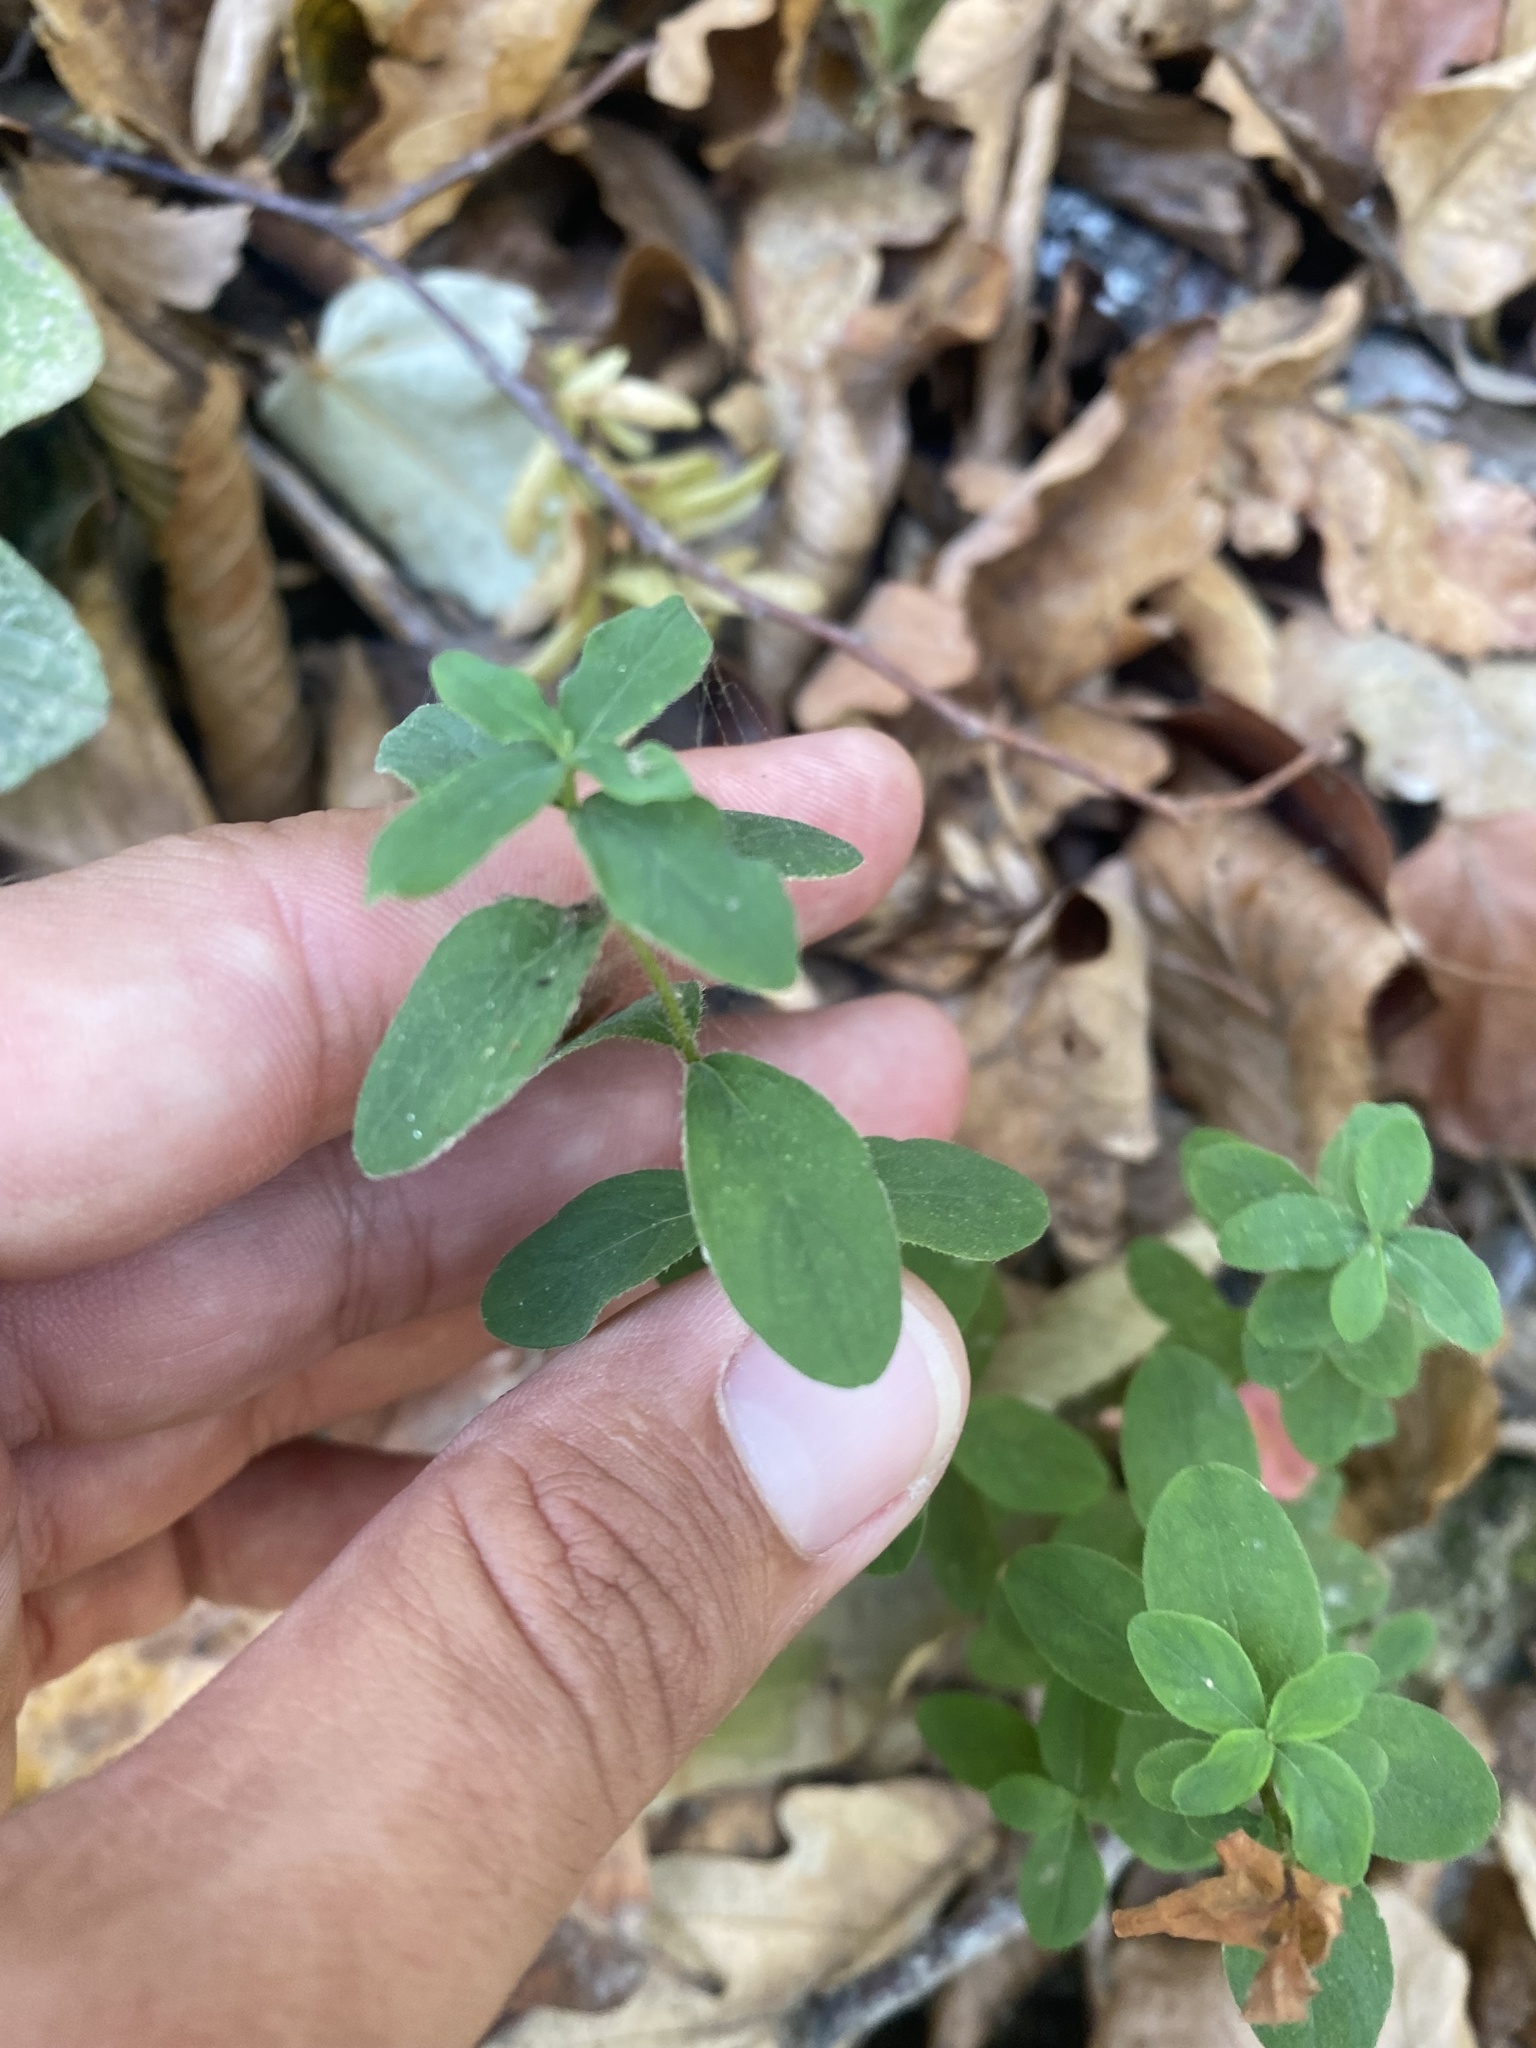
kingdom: Plantae
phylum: Tracheophyta
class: Magnoliopsida
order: Malpighiales
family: Hypericaceae
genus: Hypericum
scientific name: Hypericum hirsutum
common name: Hairy st. john's-wort
